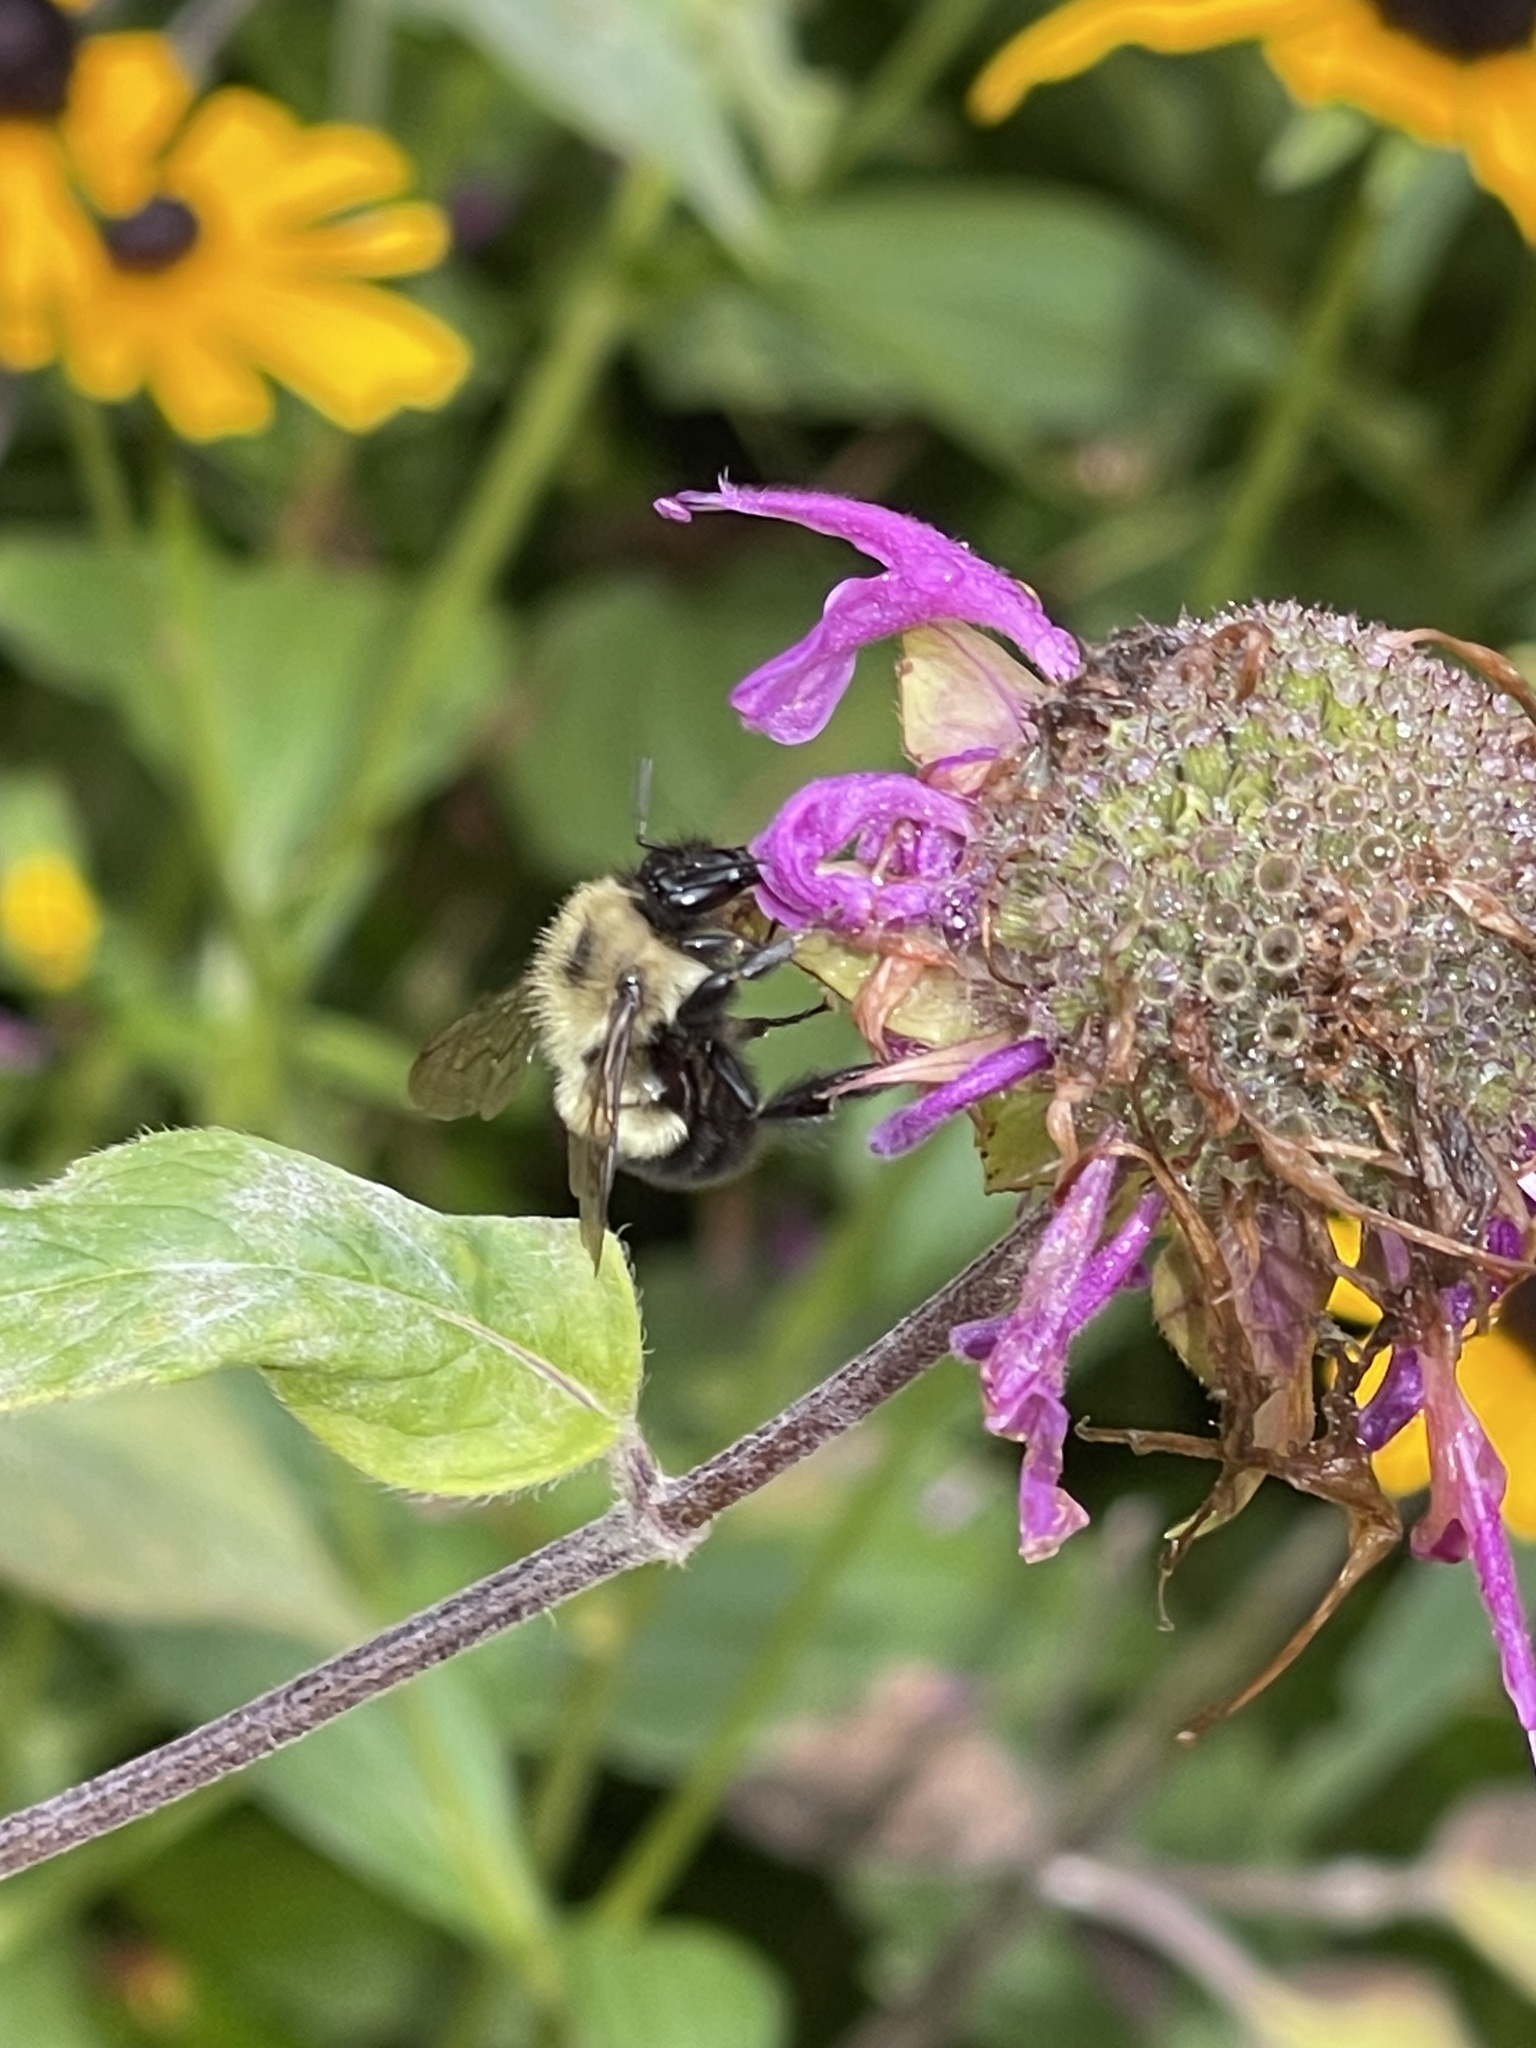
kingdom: Animalia
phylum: Arthropoda
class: Insecta
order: Hymenoptera
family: Apidae
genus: Pyrobombus
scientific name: Pyrobombus
